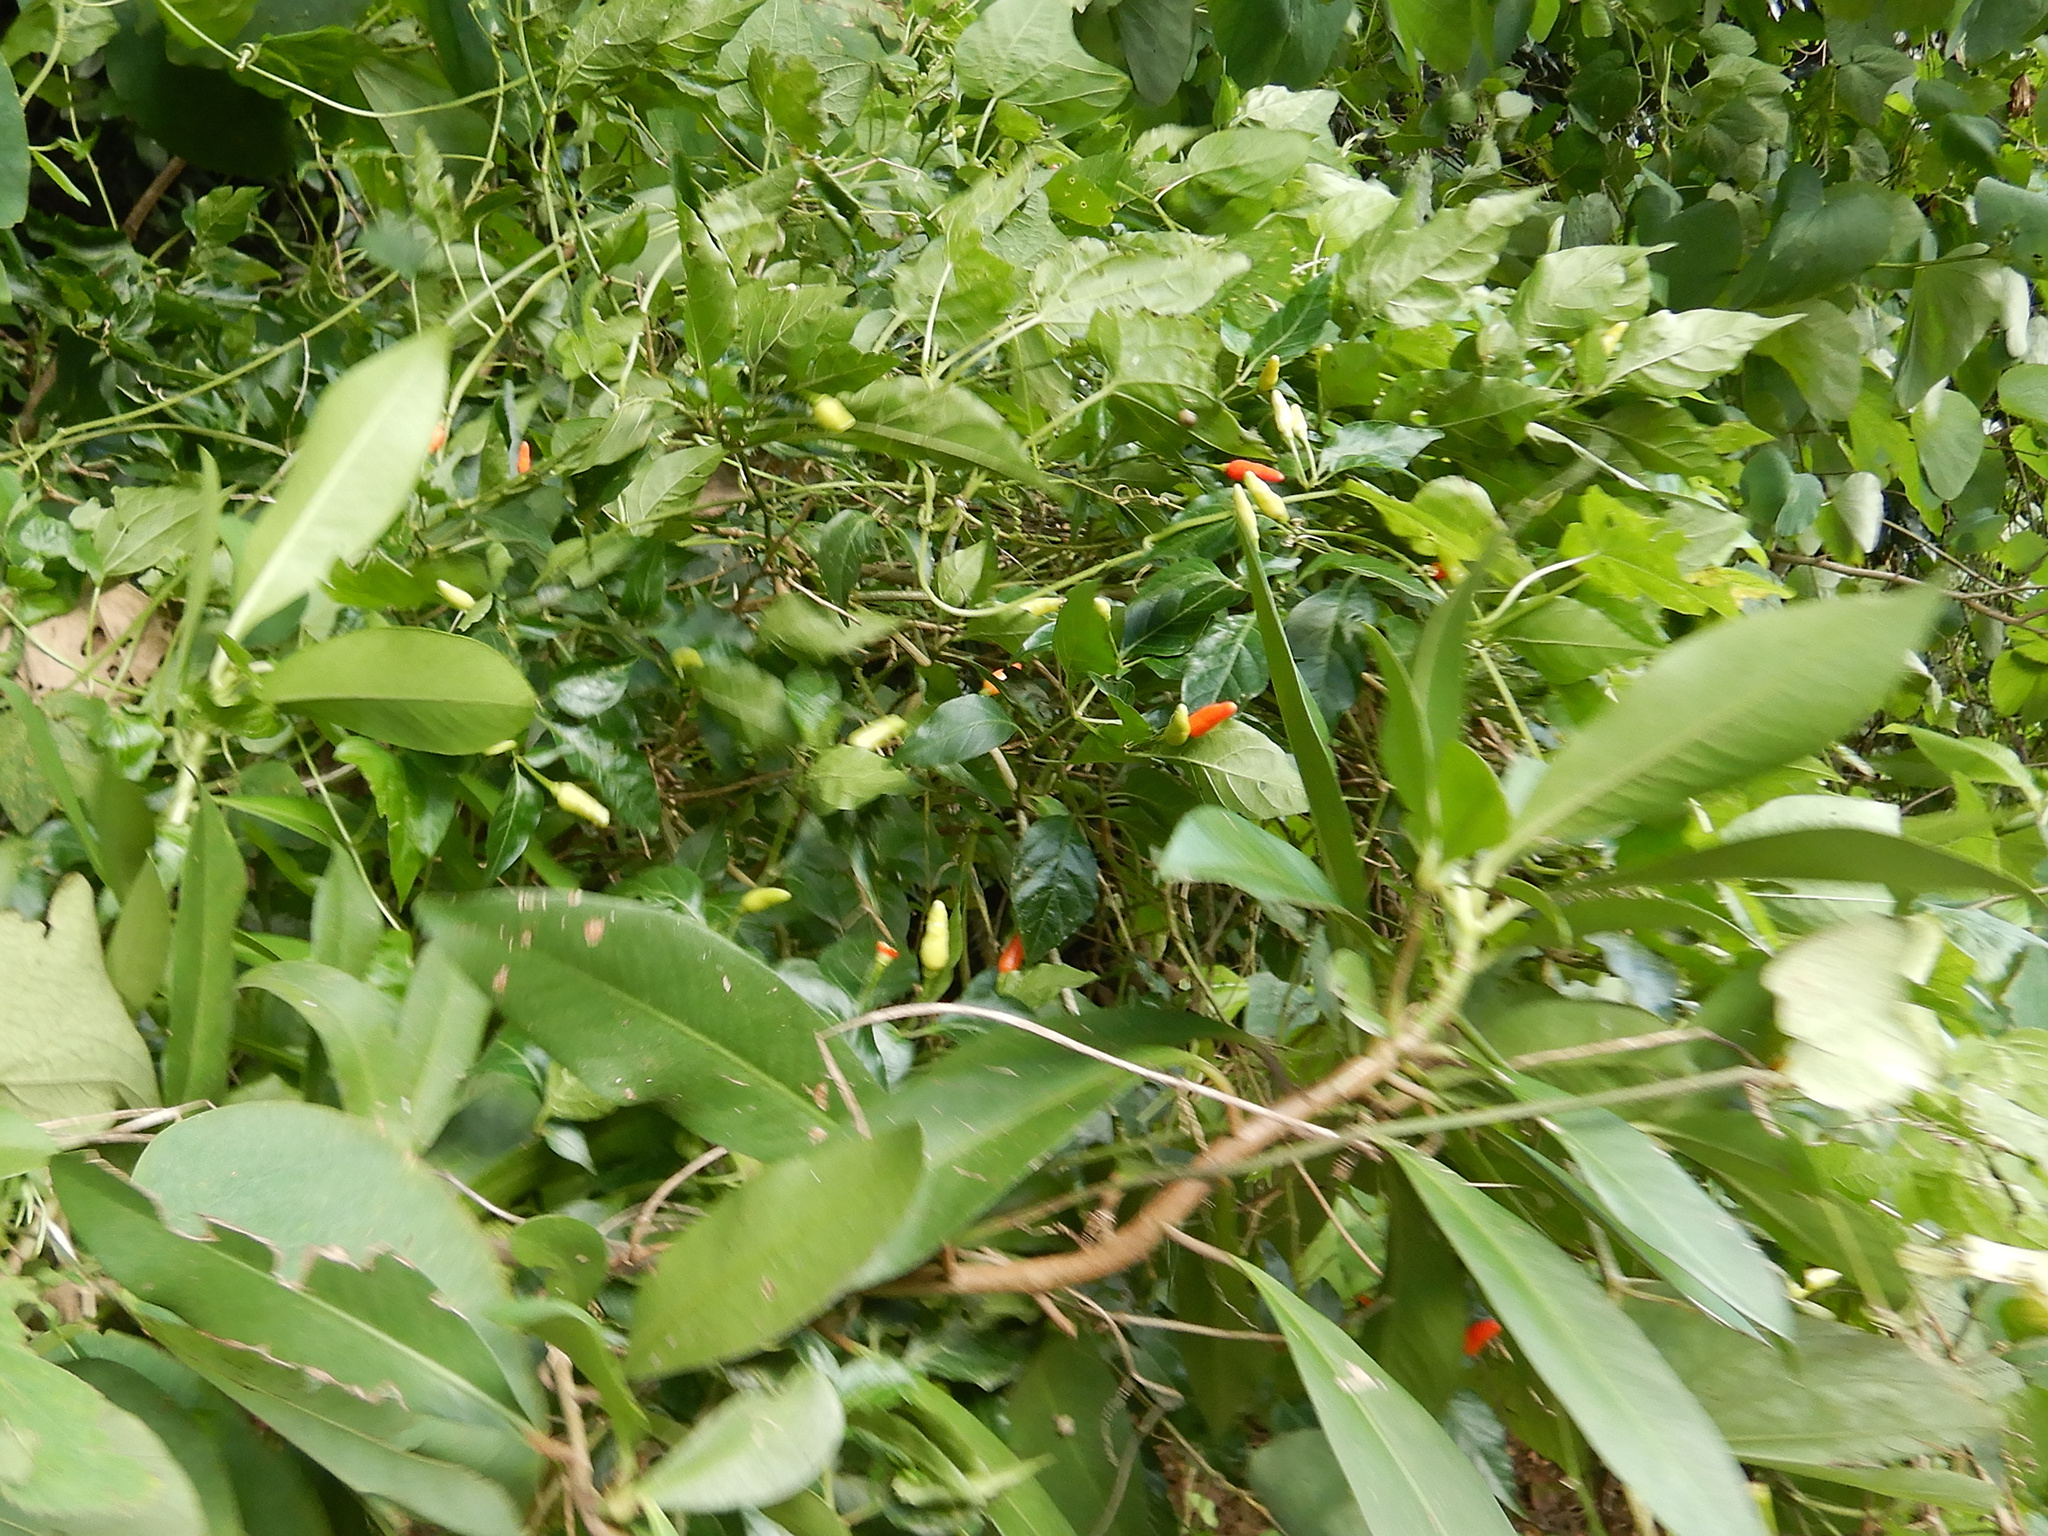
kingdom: Plantae
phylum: Tracheophyta
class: Magnoliopsida
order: Solanales
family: Solanaceae
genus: Capsicum
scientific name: Capsicum frutescens
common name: Bird pepper
